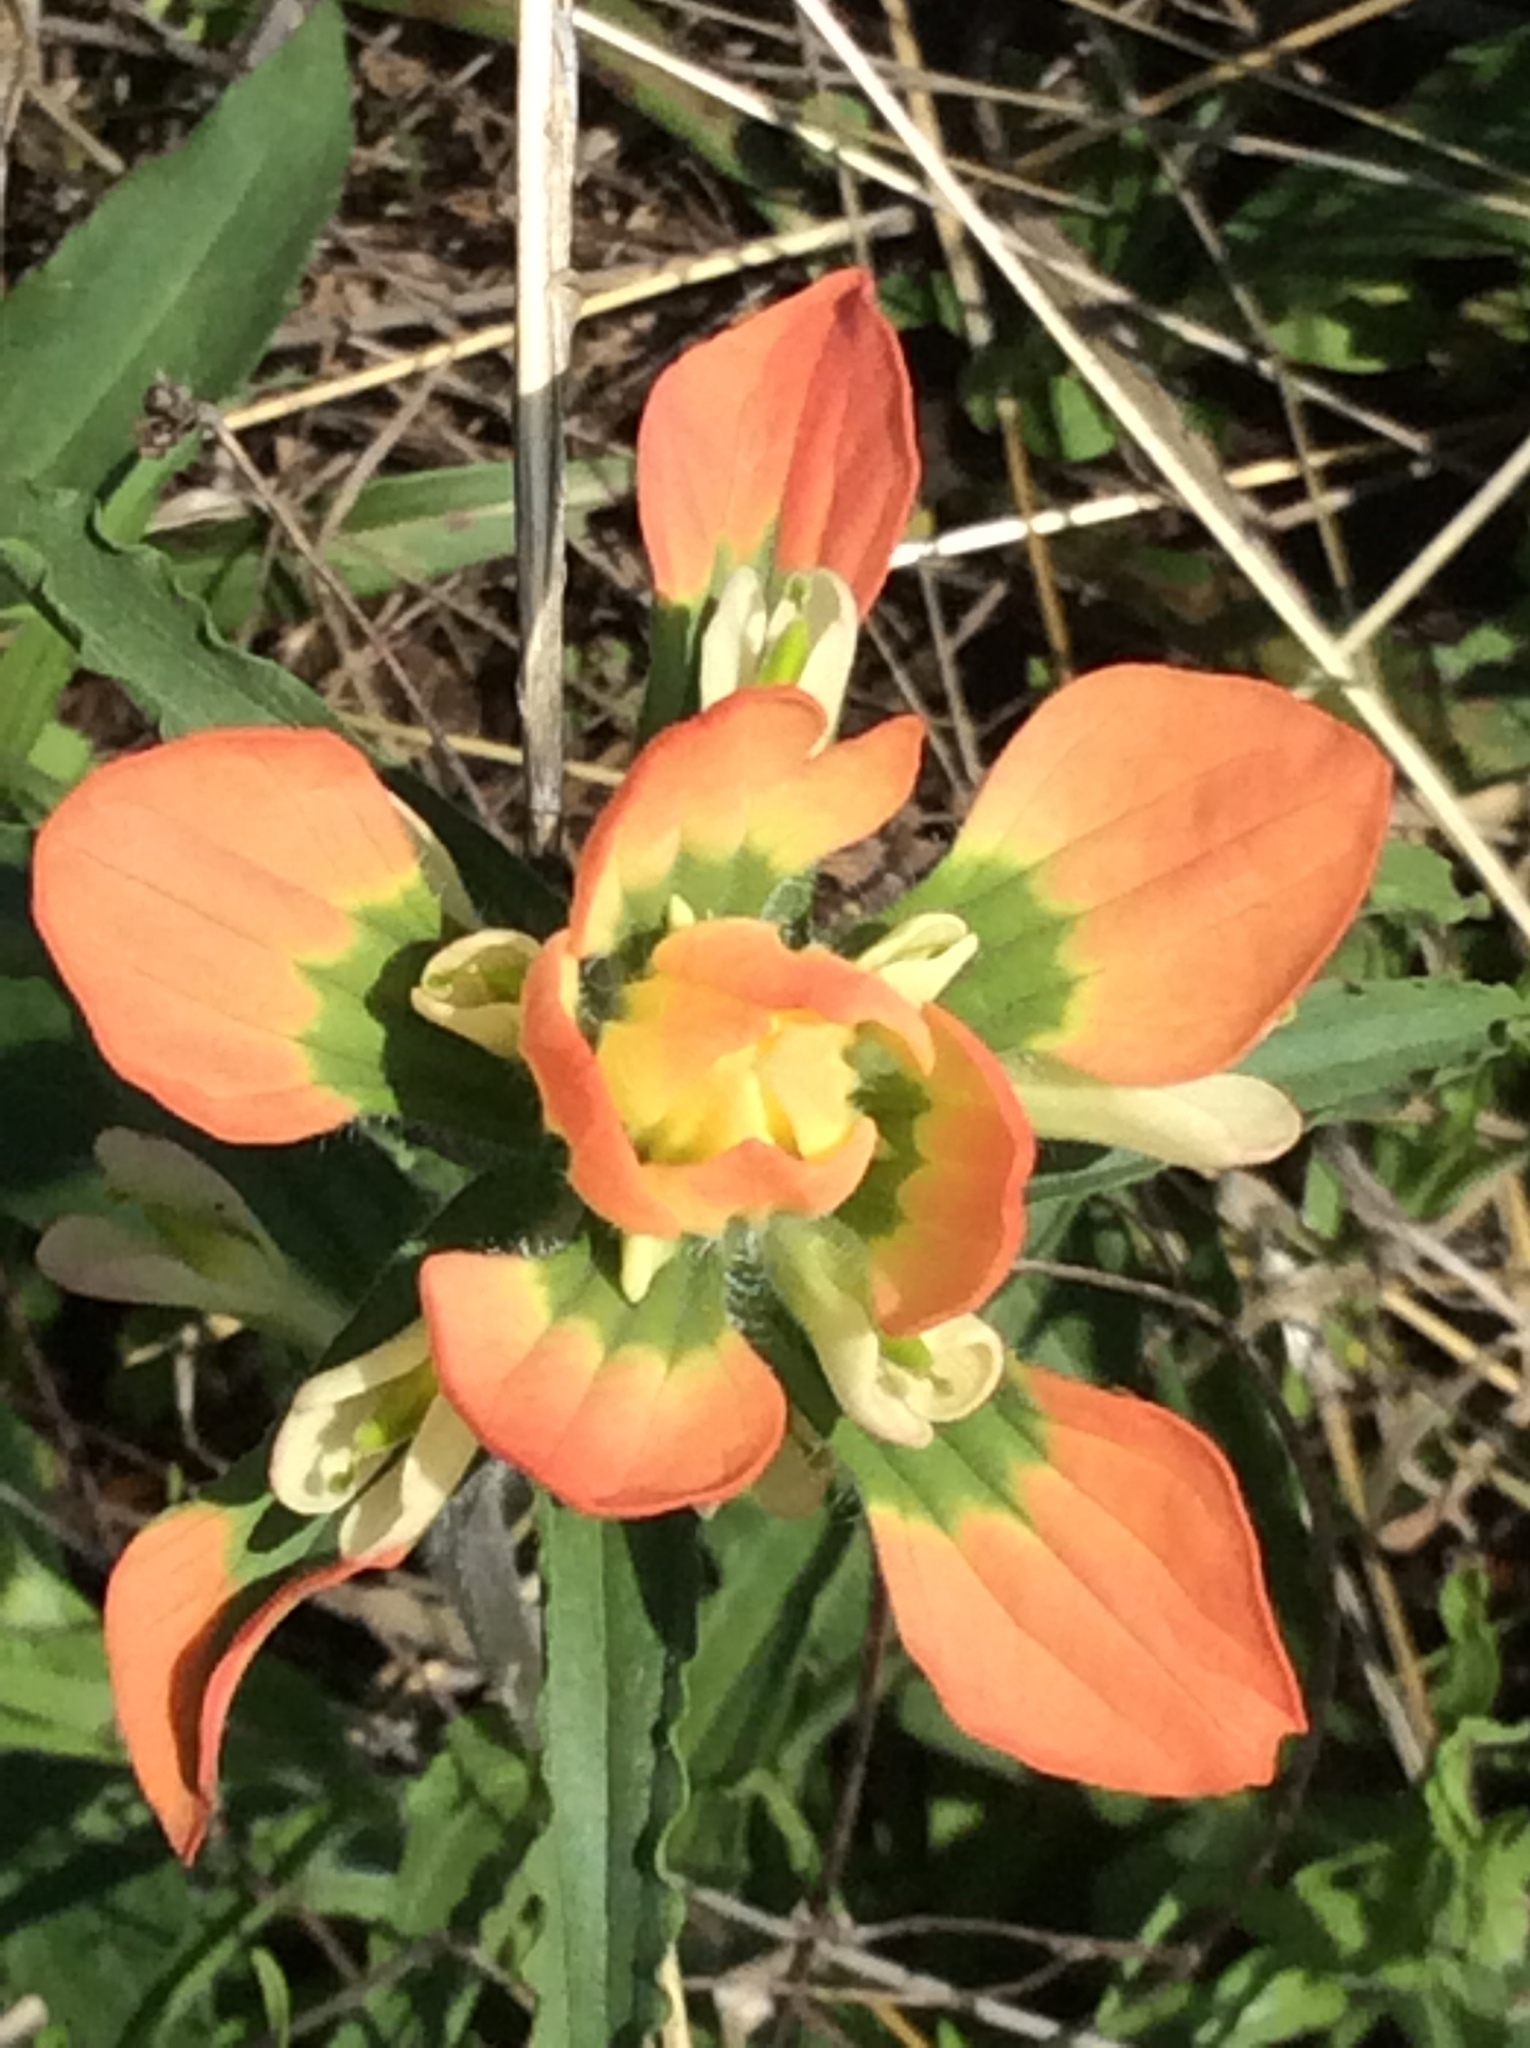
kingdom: Plantae
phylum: Tracheophyta
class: Magnoliopsida
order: Lamiales
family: Orobanchaceae
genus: Castilleja
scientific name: Castilleja indivisa
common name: Texas paintbrush
